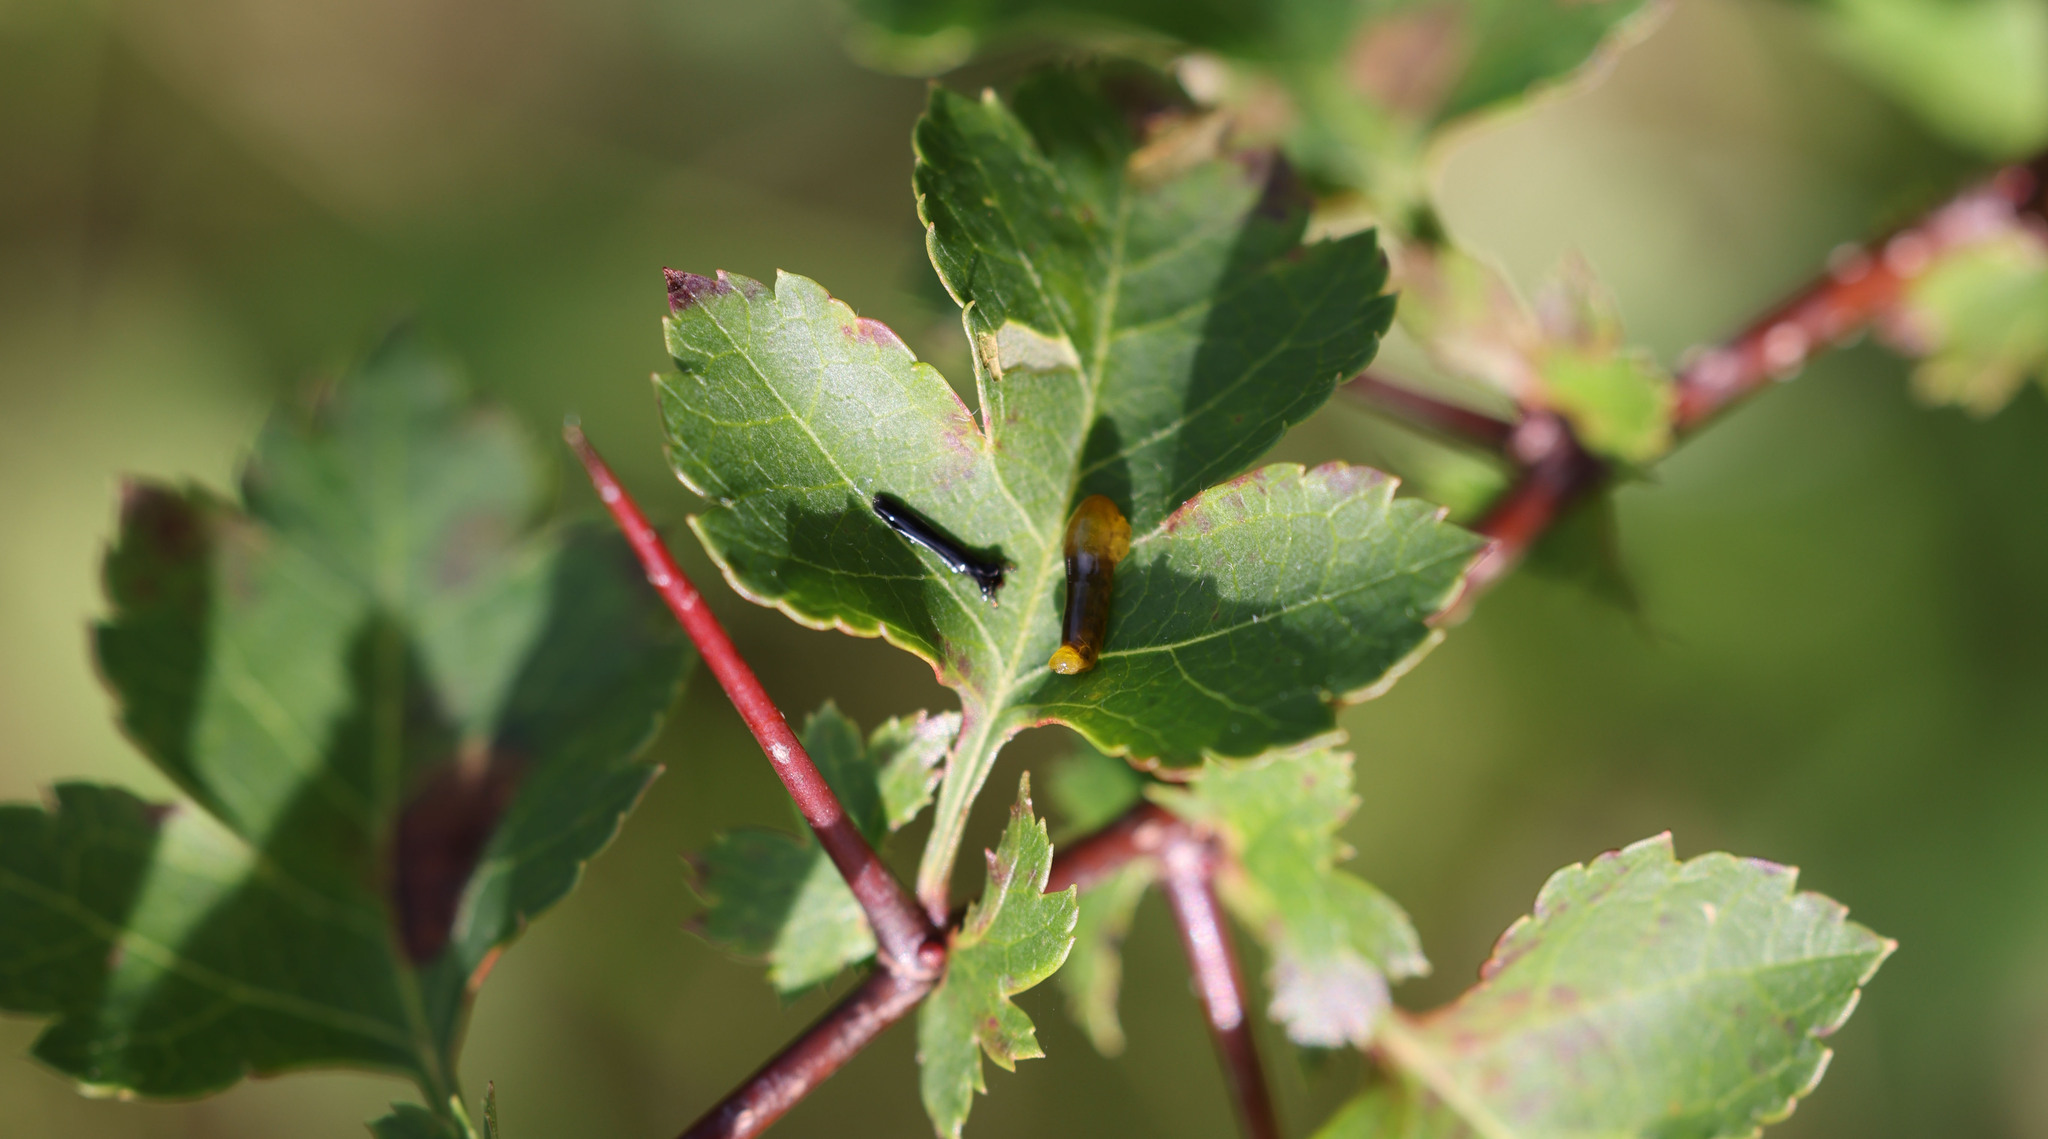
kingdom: Animalia
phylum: Arthropoda
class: Insecta
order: Hymenoptera
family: Tenthredinidae
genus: Caliroa
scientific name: Caliroa cerasi
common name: Pear sawfly
